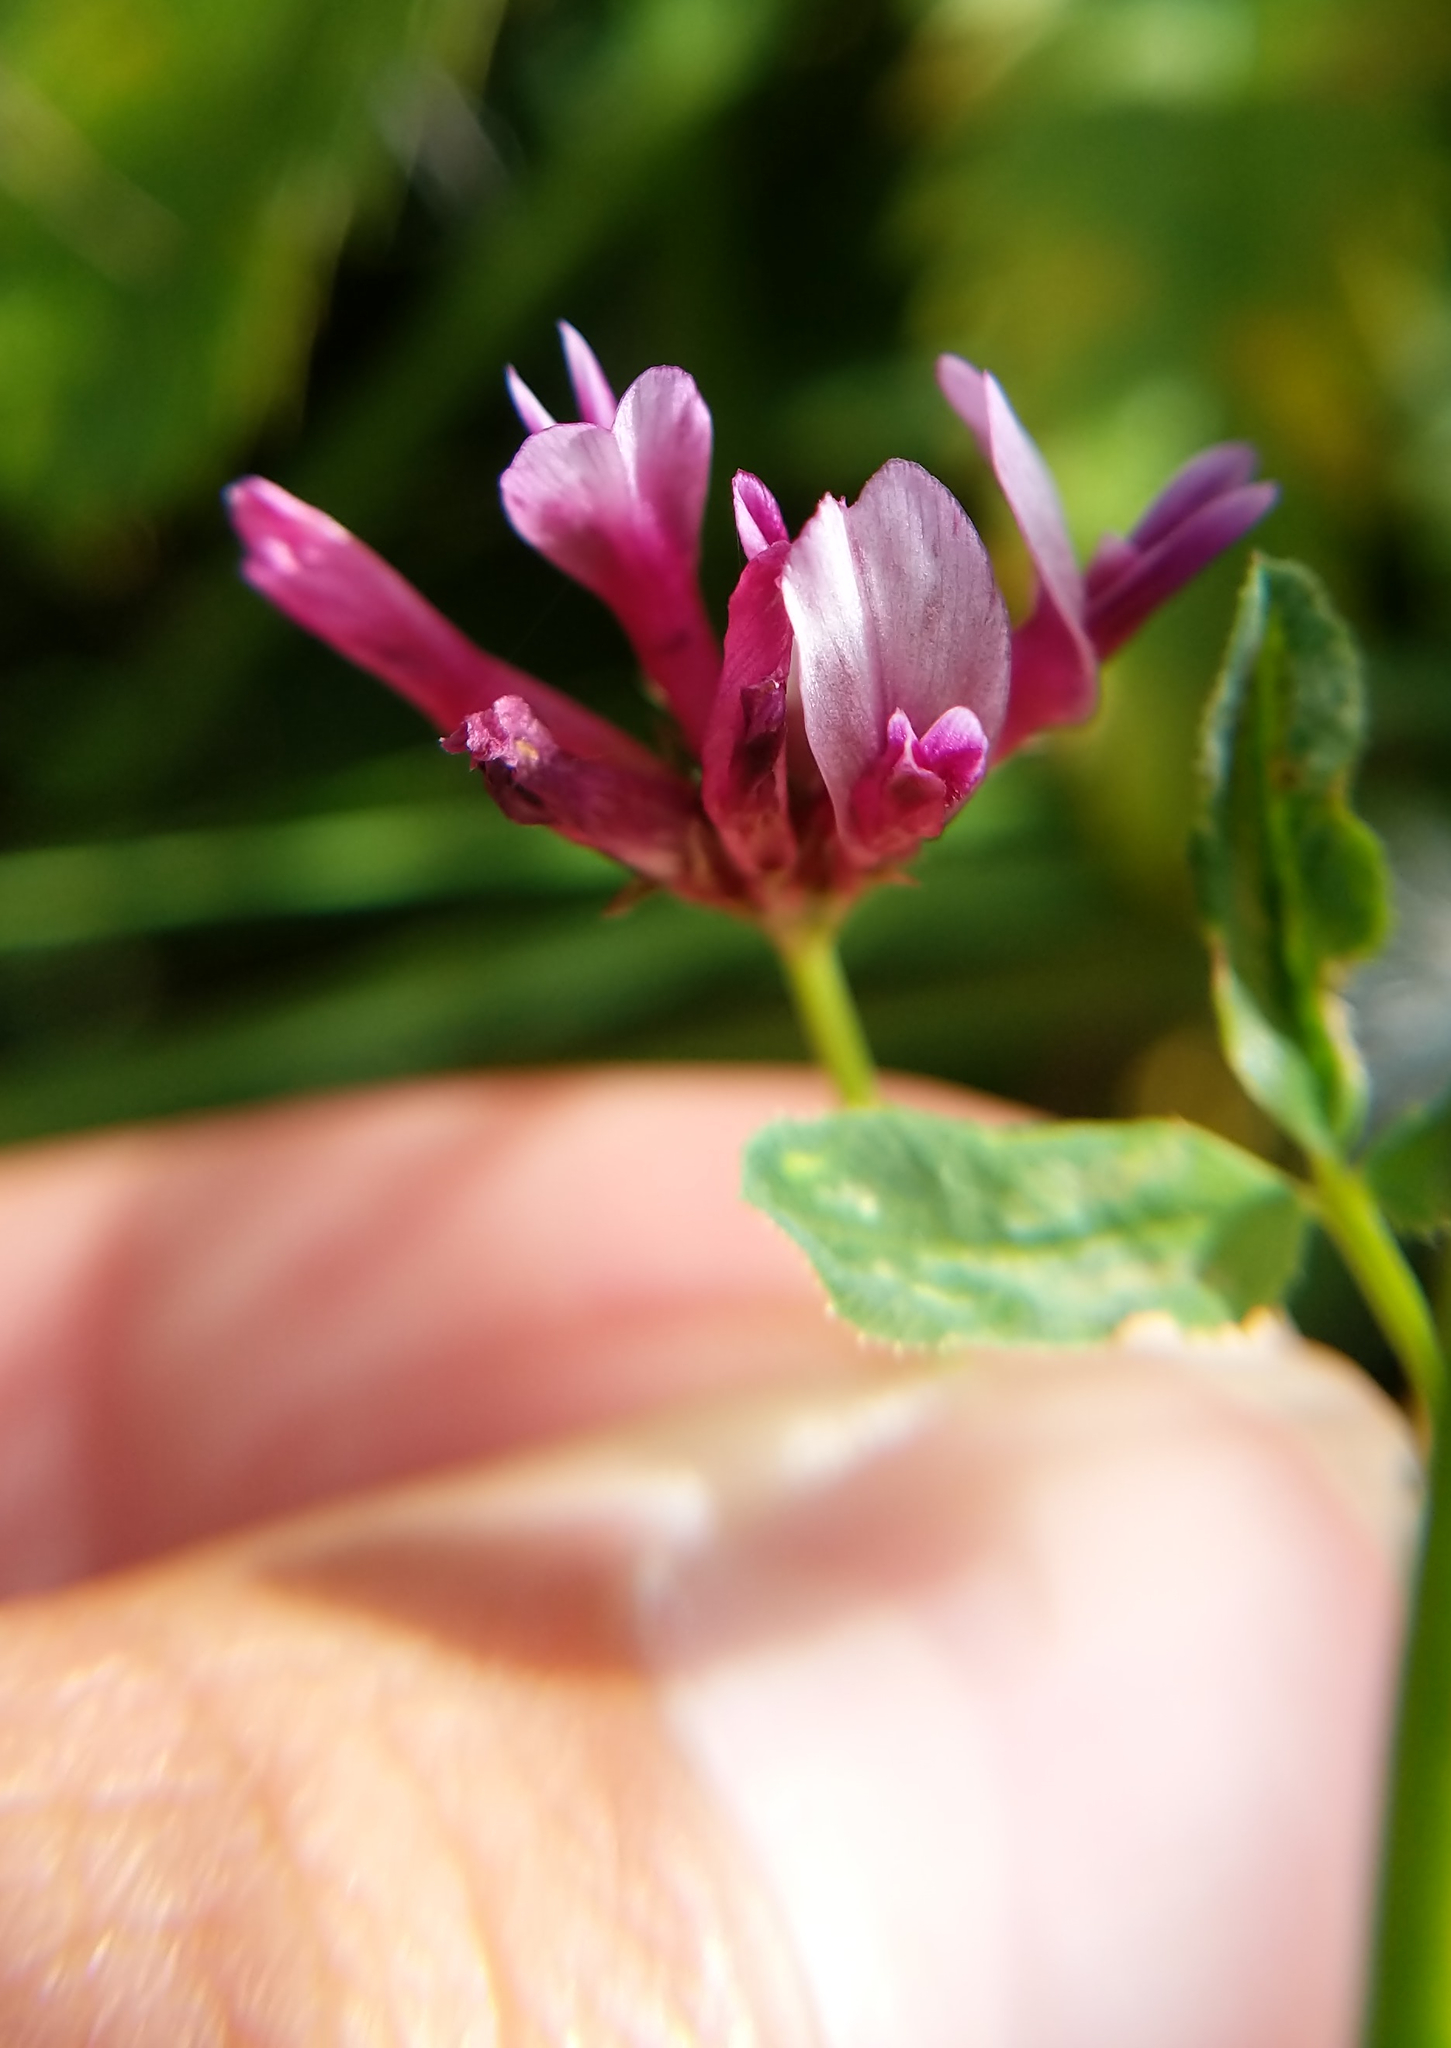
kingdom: Plantae
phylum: Tracheophyta
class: Magnoliopsida
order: Fabales
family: Fabaceae
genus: Trifolium
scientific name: Trifolium willdenovii
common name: Tomcat clover
